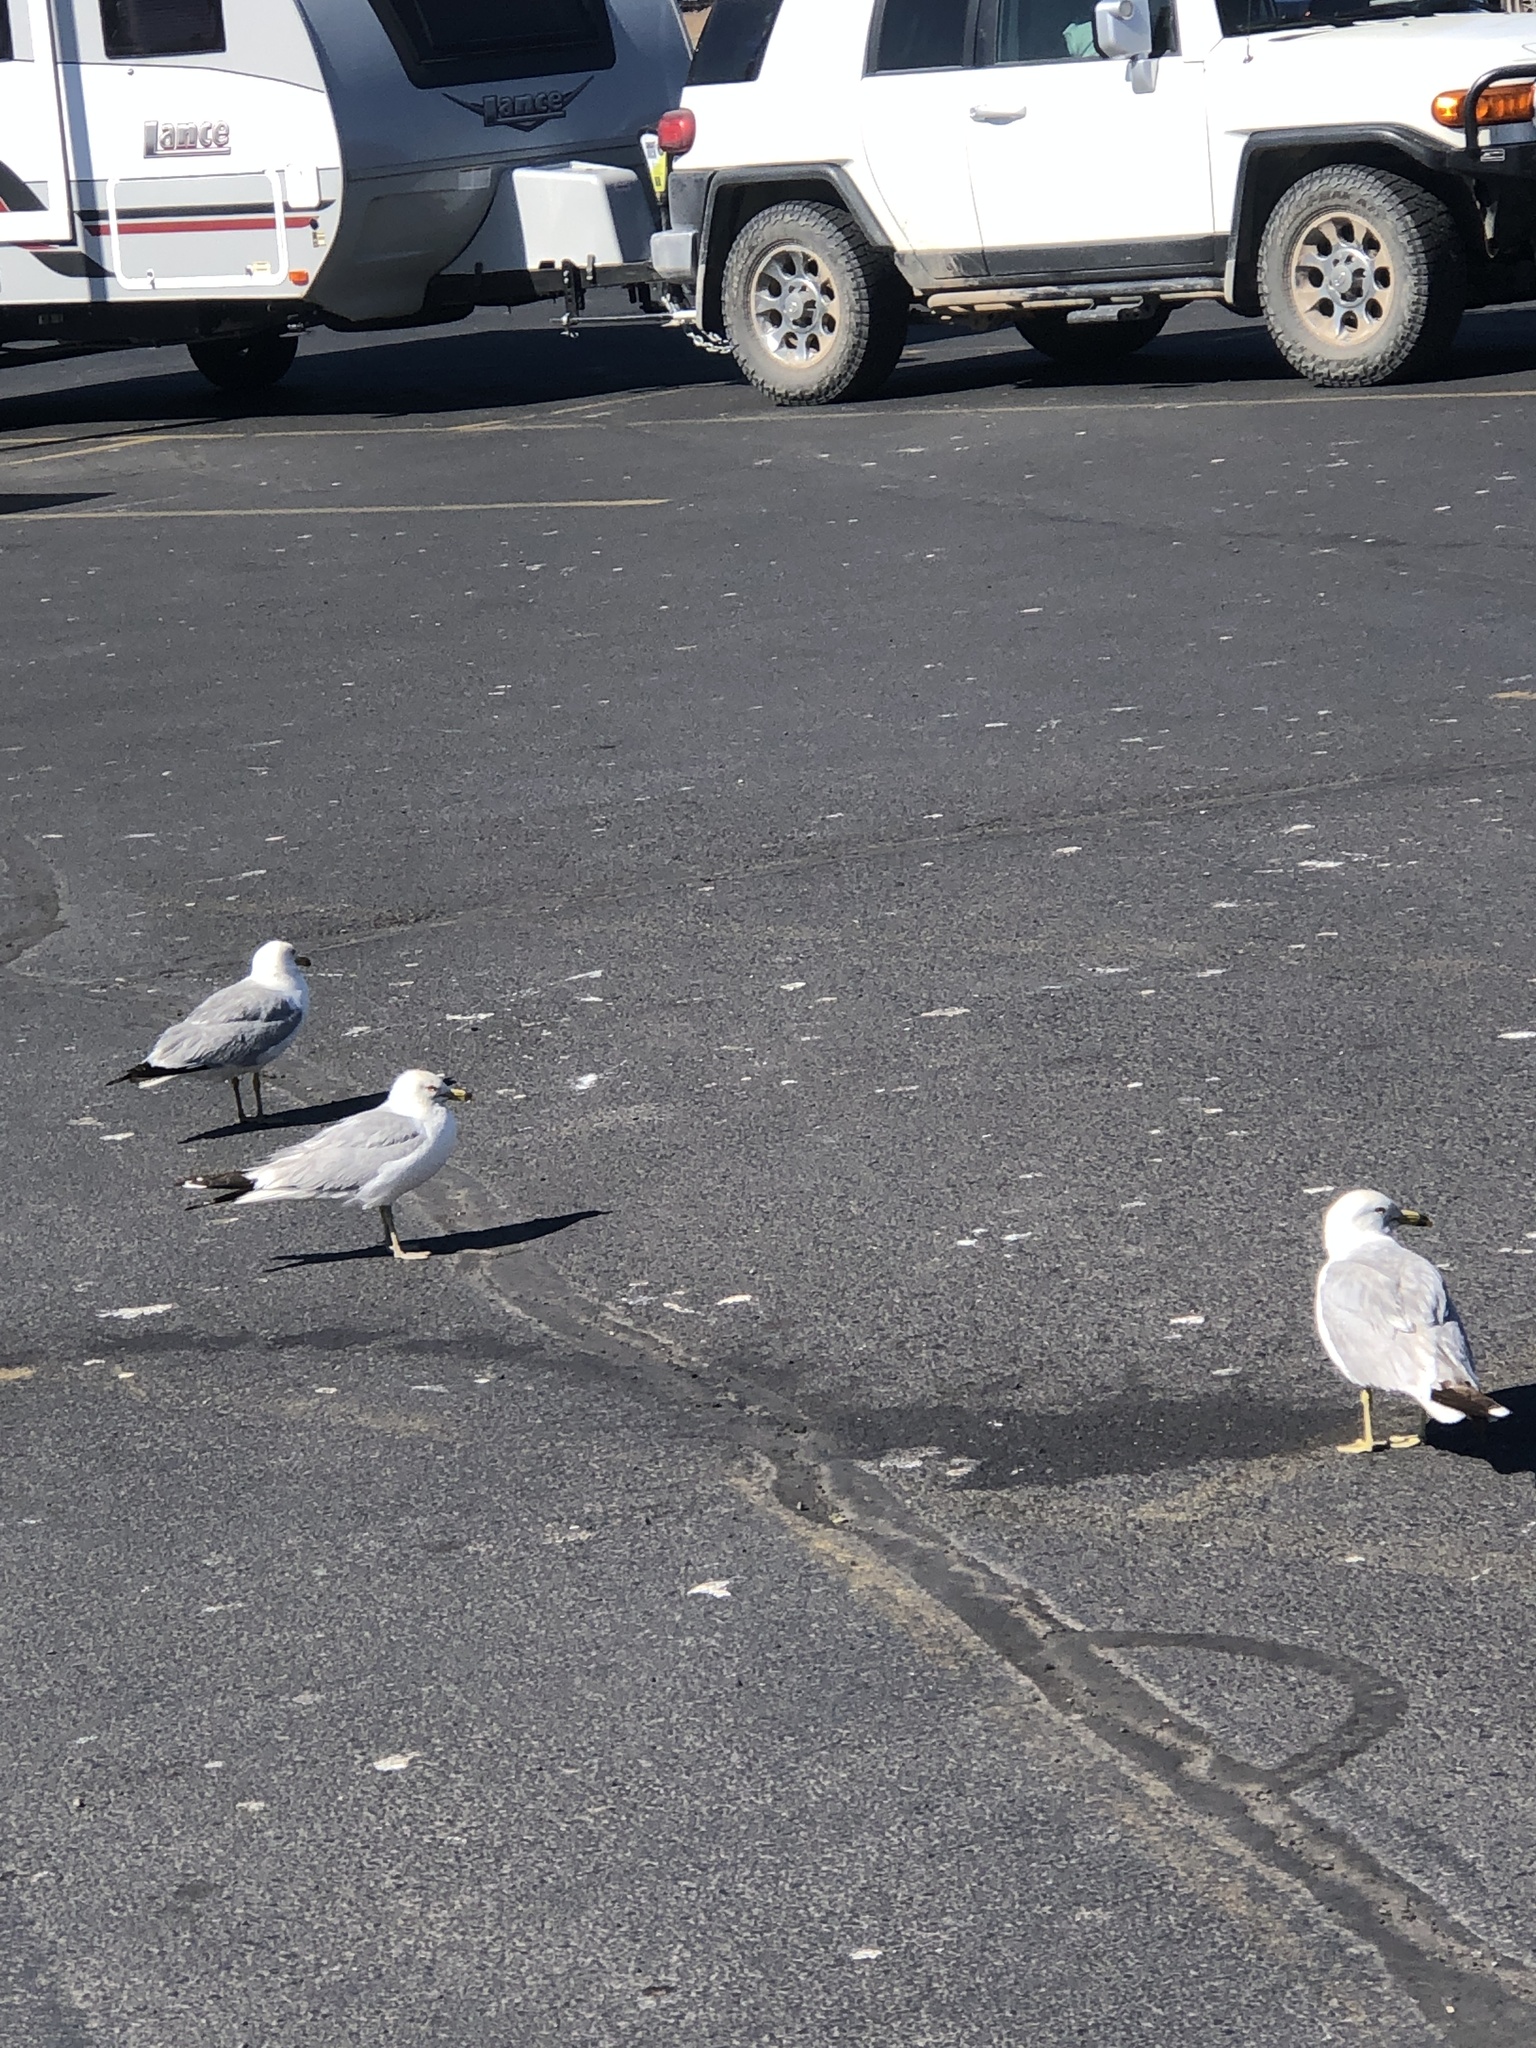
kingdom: Animalia
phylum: Chordata
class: Aves
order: Charadriiformes
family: Laridae
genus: Larus
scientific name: Larus delawarensis
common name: Ring-billed gull
